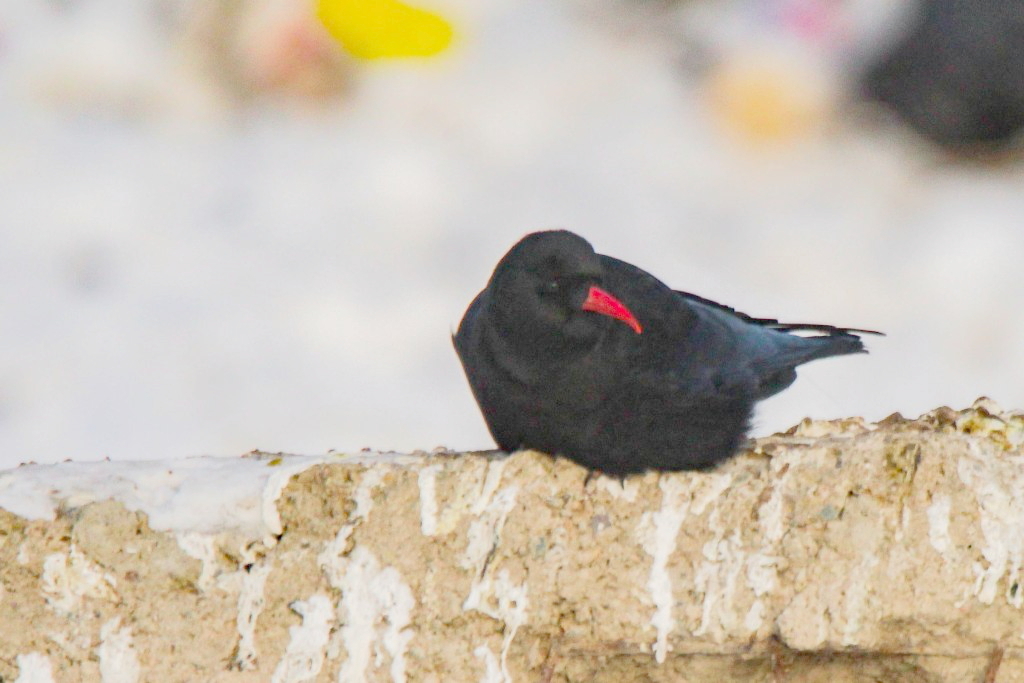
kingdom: Animalia
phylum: Chordata
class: Aves
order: Passeriformes
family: Corvidae
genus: Pyrrhocorax
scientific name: Pyrrhocorax pyrrhocorax
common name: Red-billed chough
